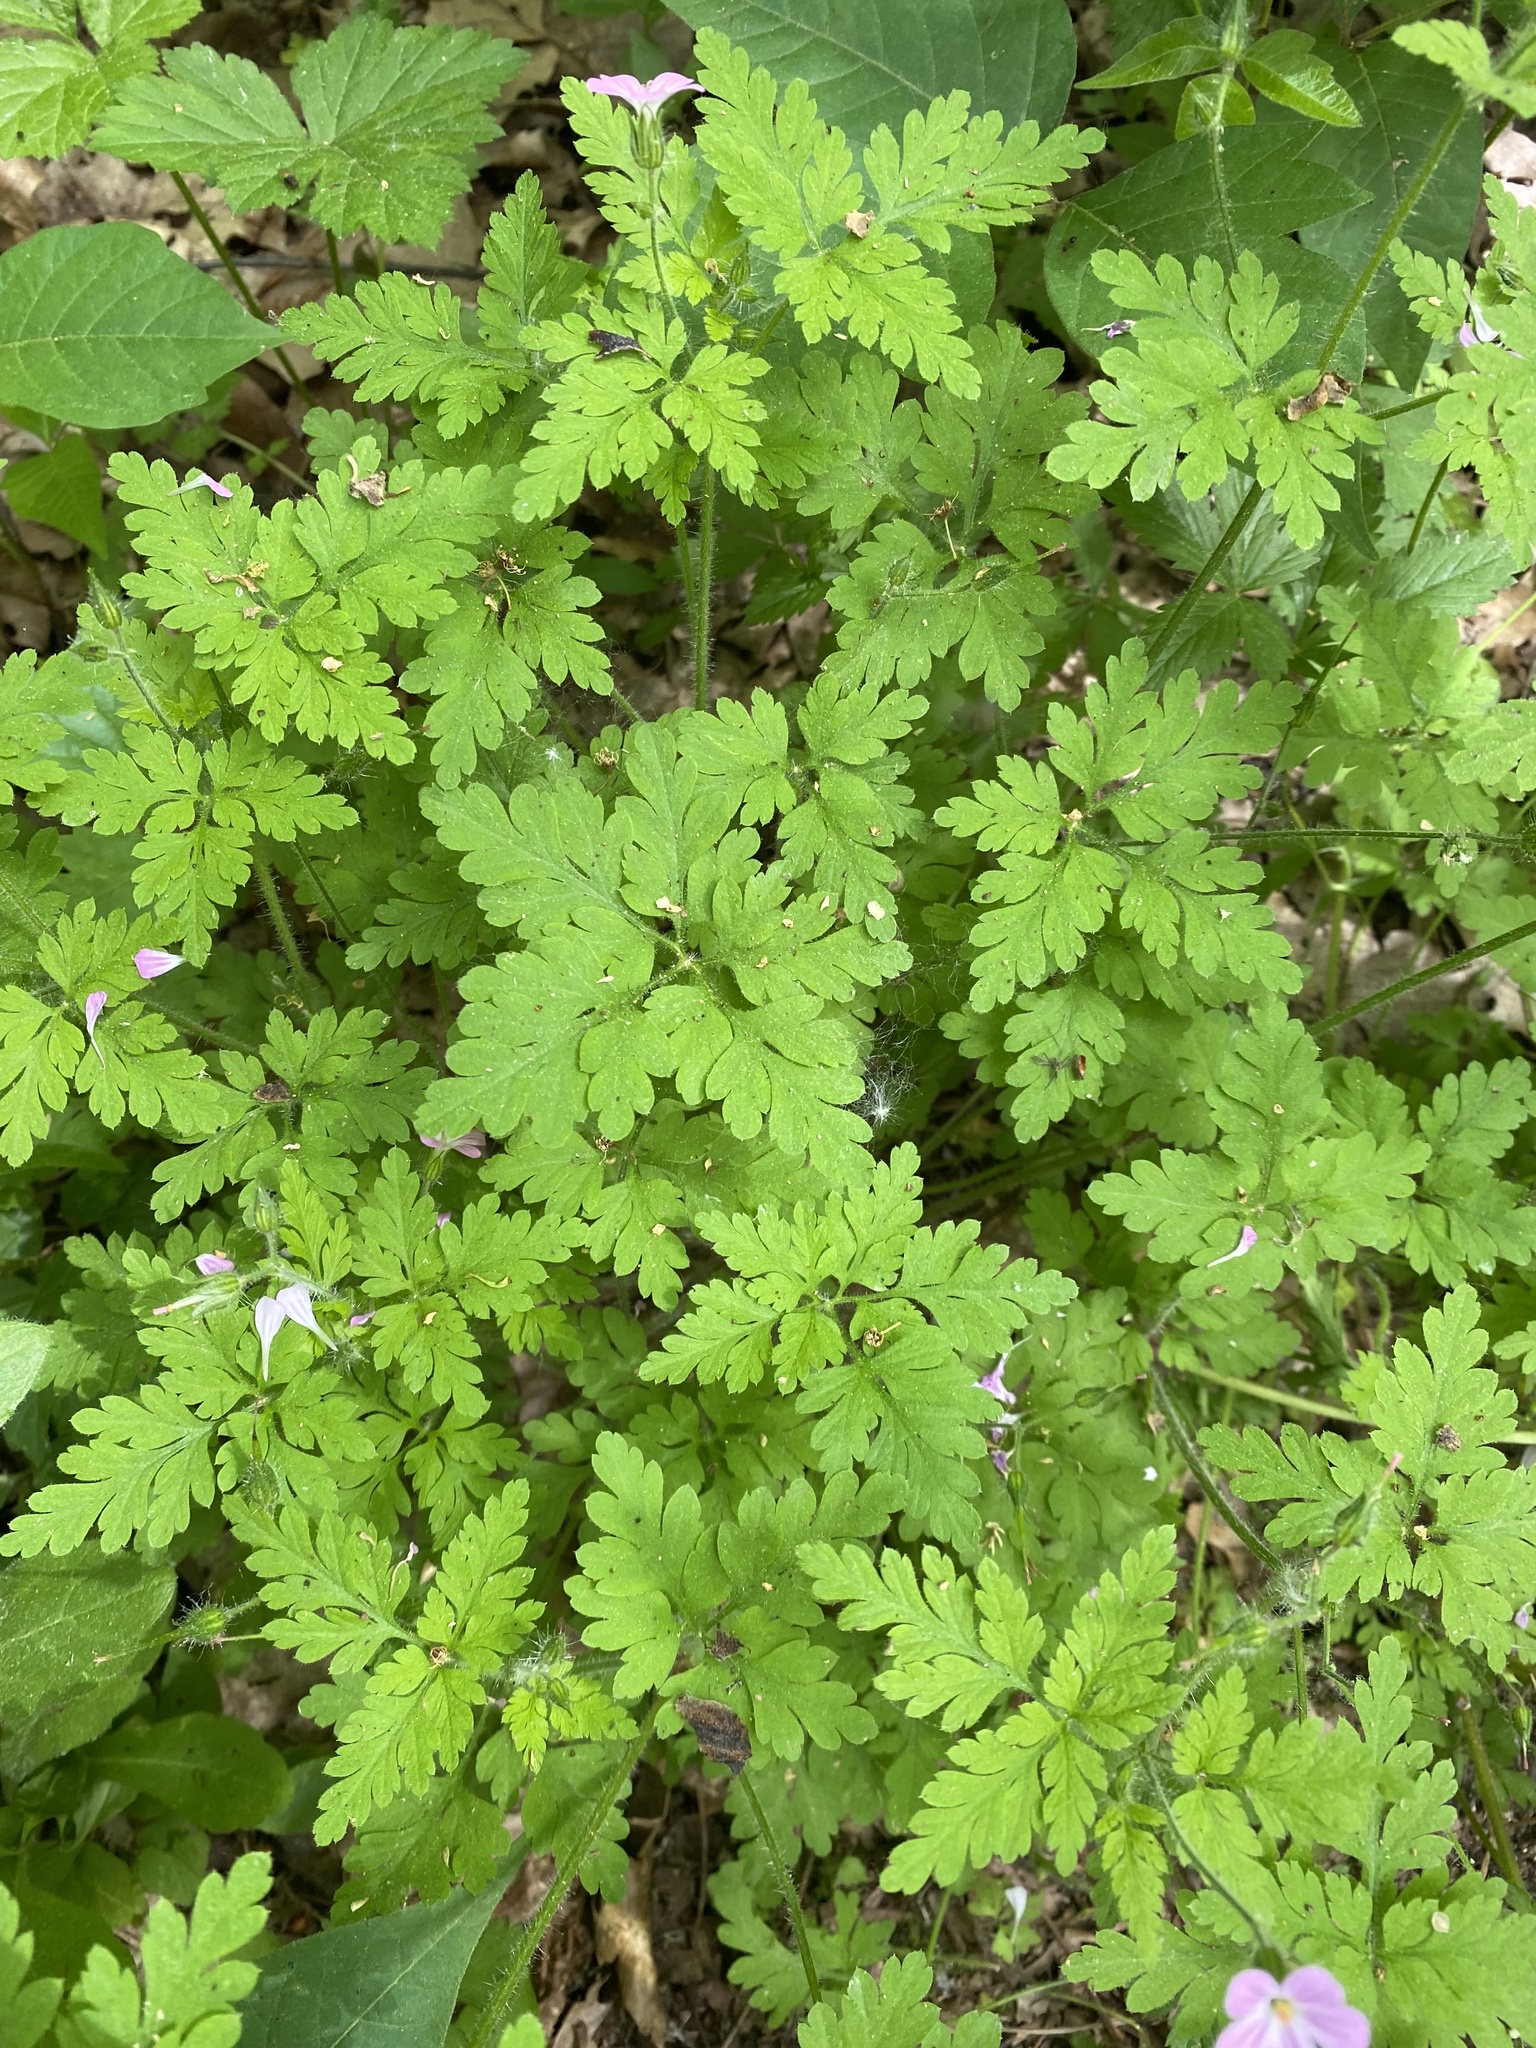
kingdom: Plantae
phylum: Tracheophyta
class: Magnoliopsida
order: Geraniales
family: Geraniaceae
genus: Geranium
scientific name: Geranium robertianum
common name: Herb-robert
